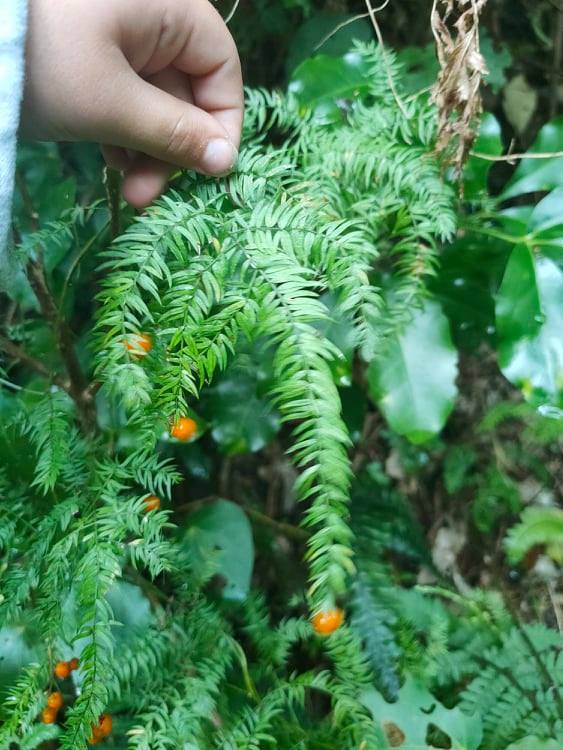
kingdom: Plantae
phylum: Tracheophyta
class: Liliopsida
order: Asparagales
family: Asparagaceae
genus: Asparagus
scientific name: Asparagus scandens
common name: Asparagus-fern
